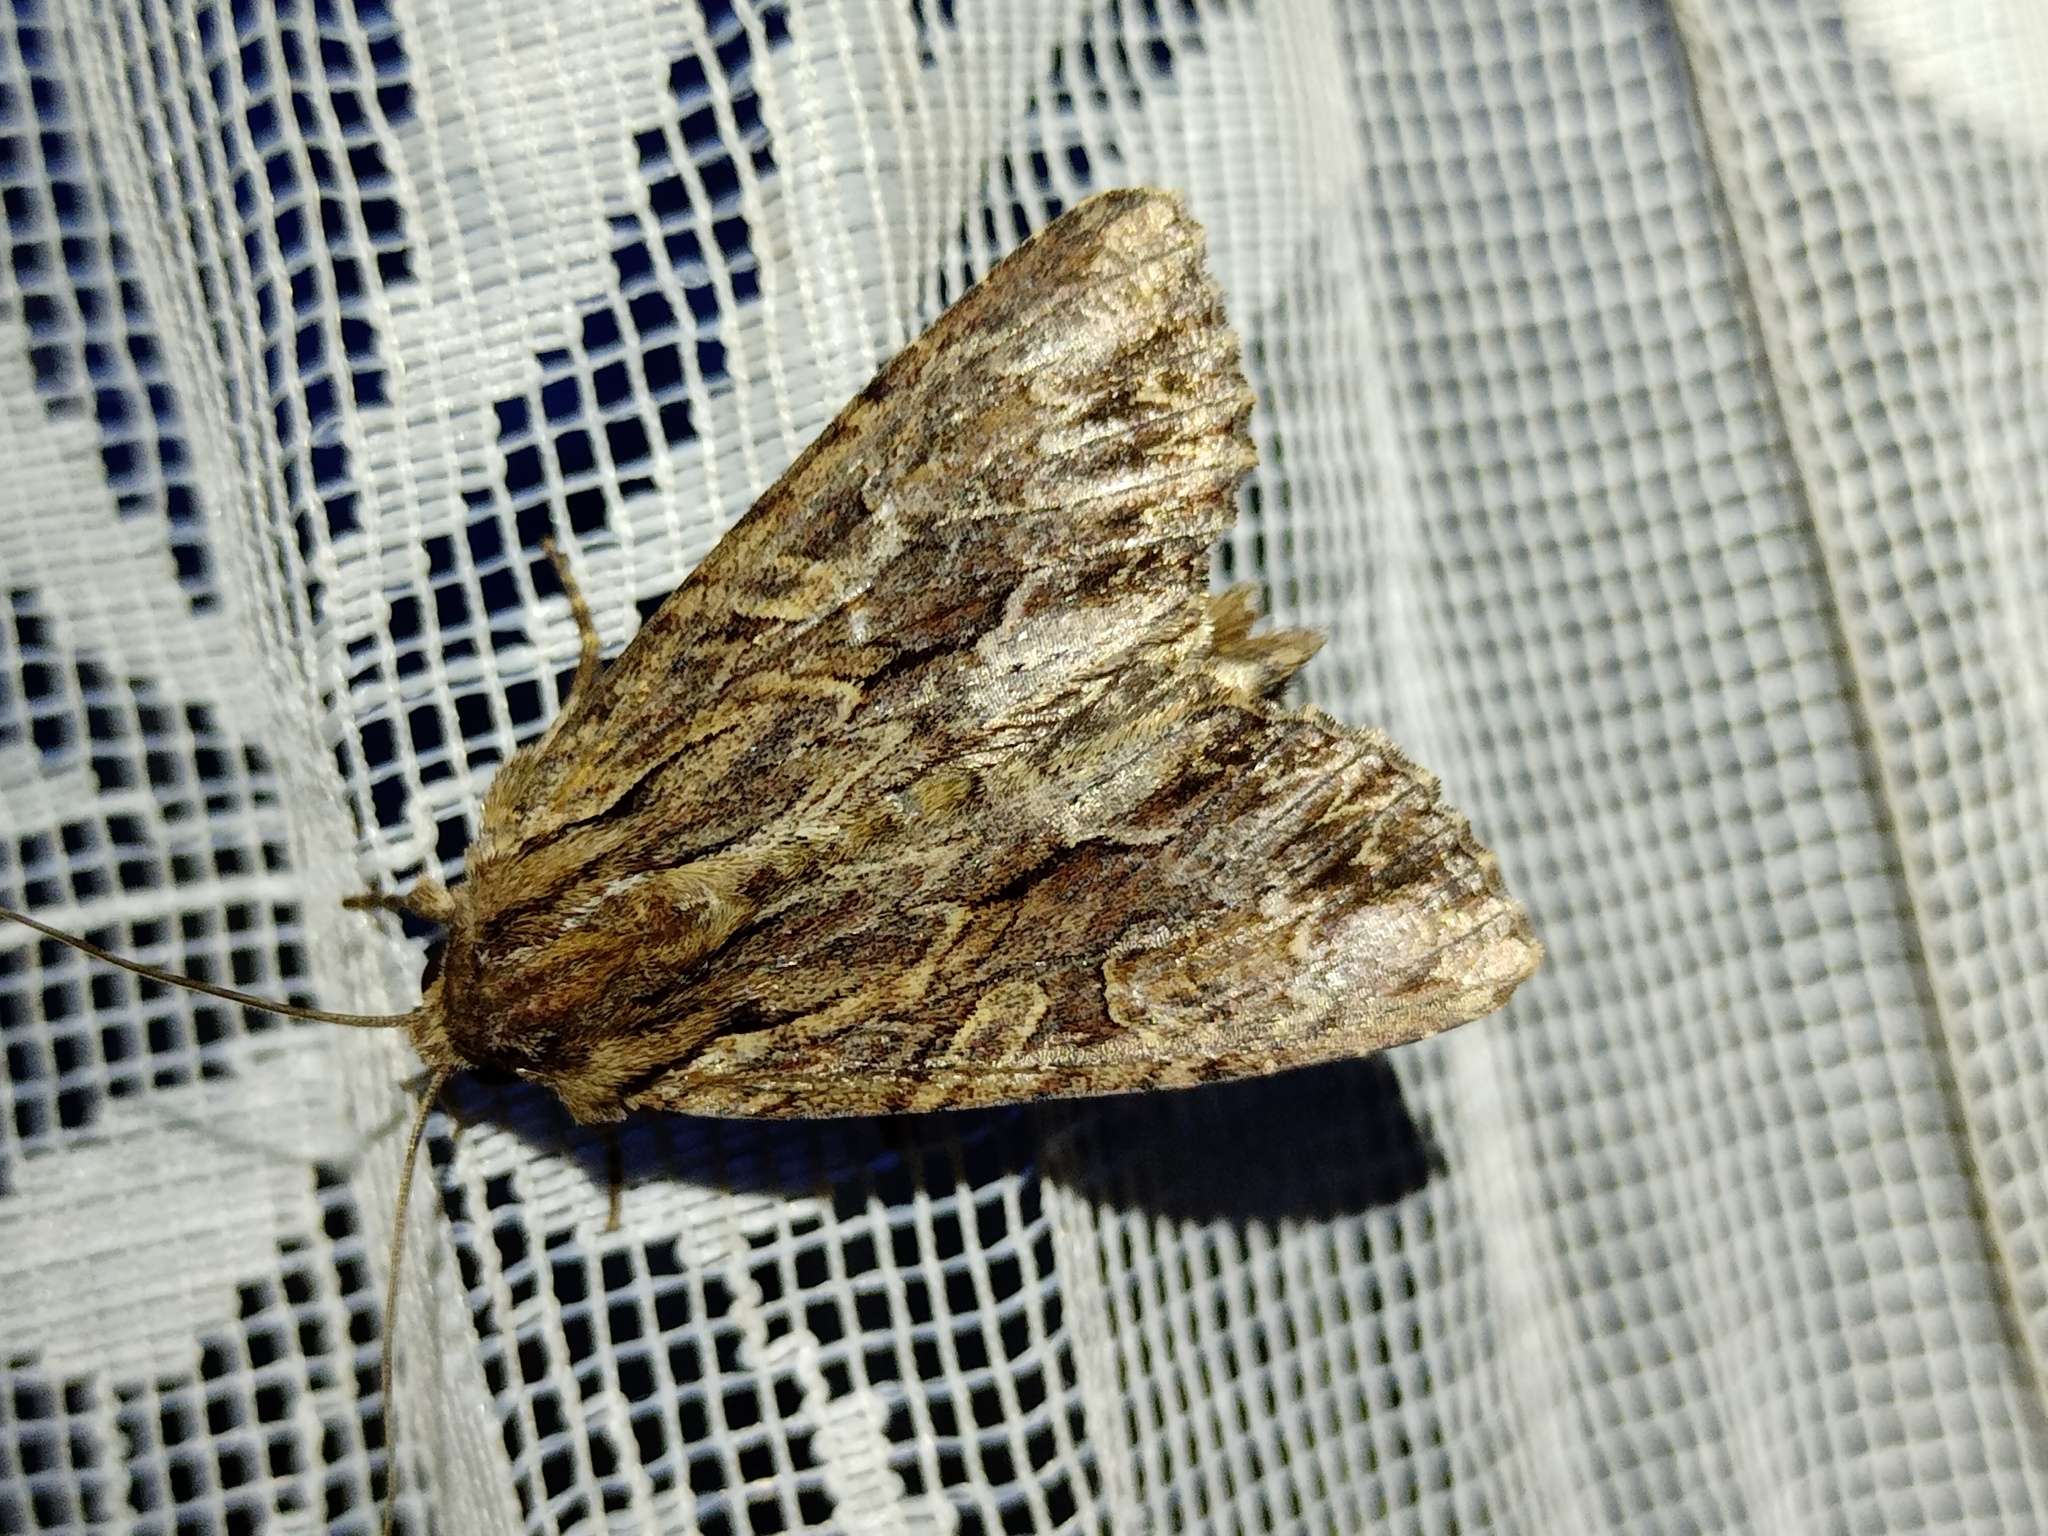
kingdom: Animalia
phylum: Arthropoda
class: Insecta
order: Lepidoptera
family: Noctuidae
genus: Apamea
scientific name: Apamea monoglypha
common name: Dark arches
